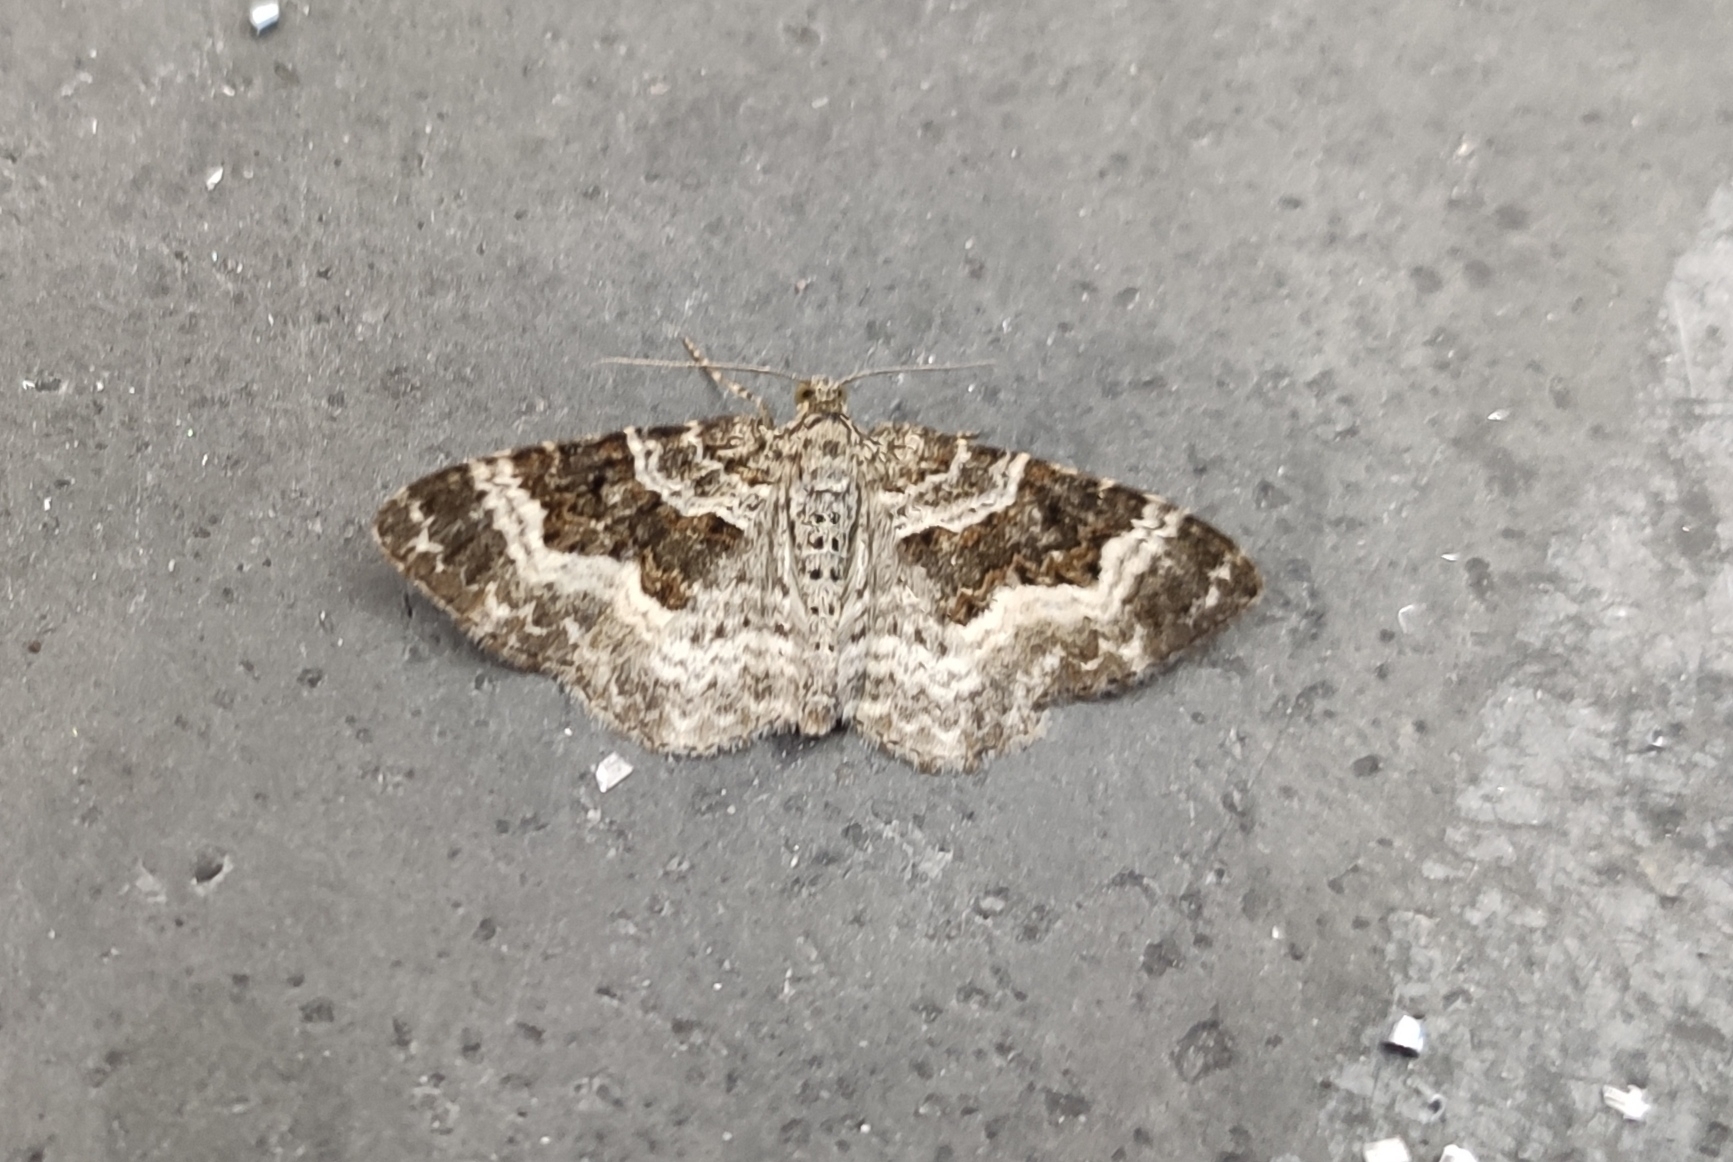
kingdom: Animalia
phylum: Arthropoda
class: Insecta
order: Lepidoptera
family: Geometridae
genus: Epirrhoe
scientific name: Epirrhoe alternata
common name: Common carpet
